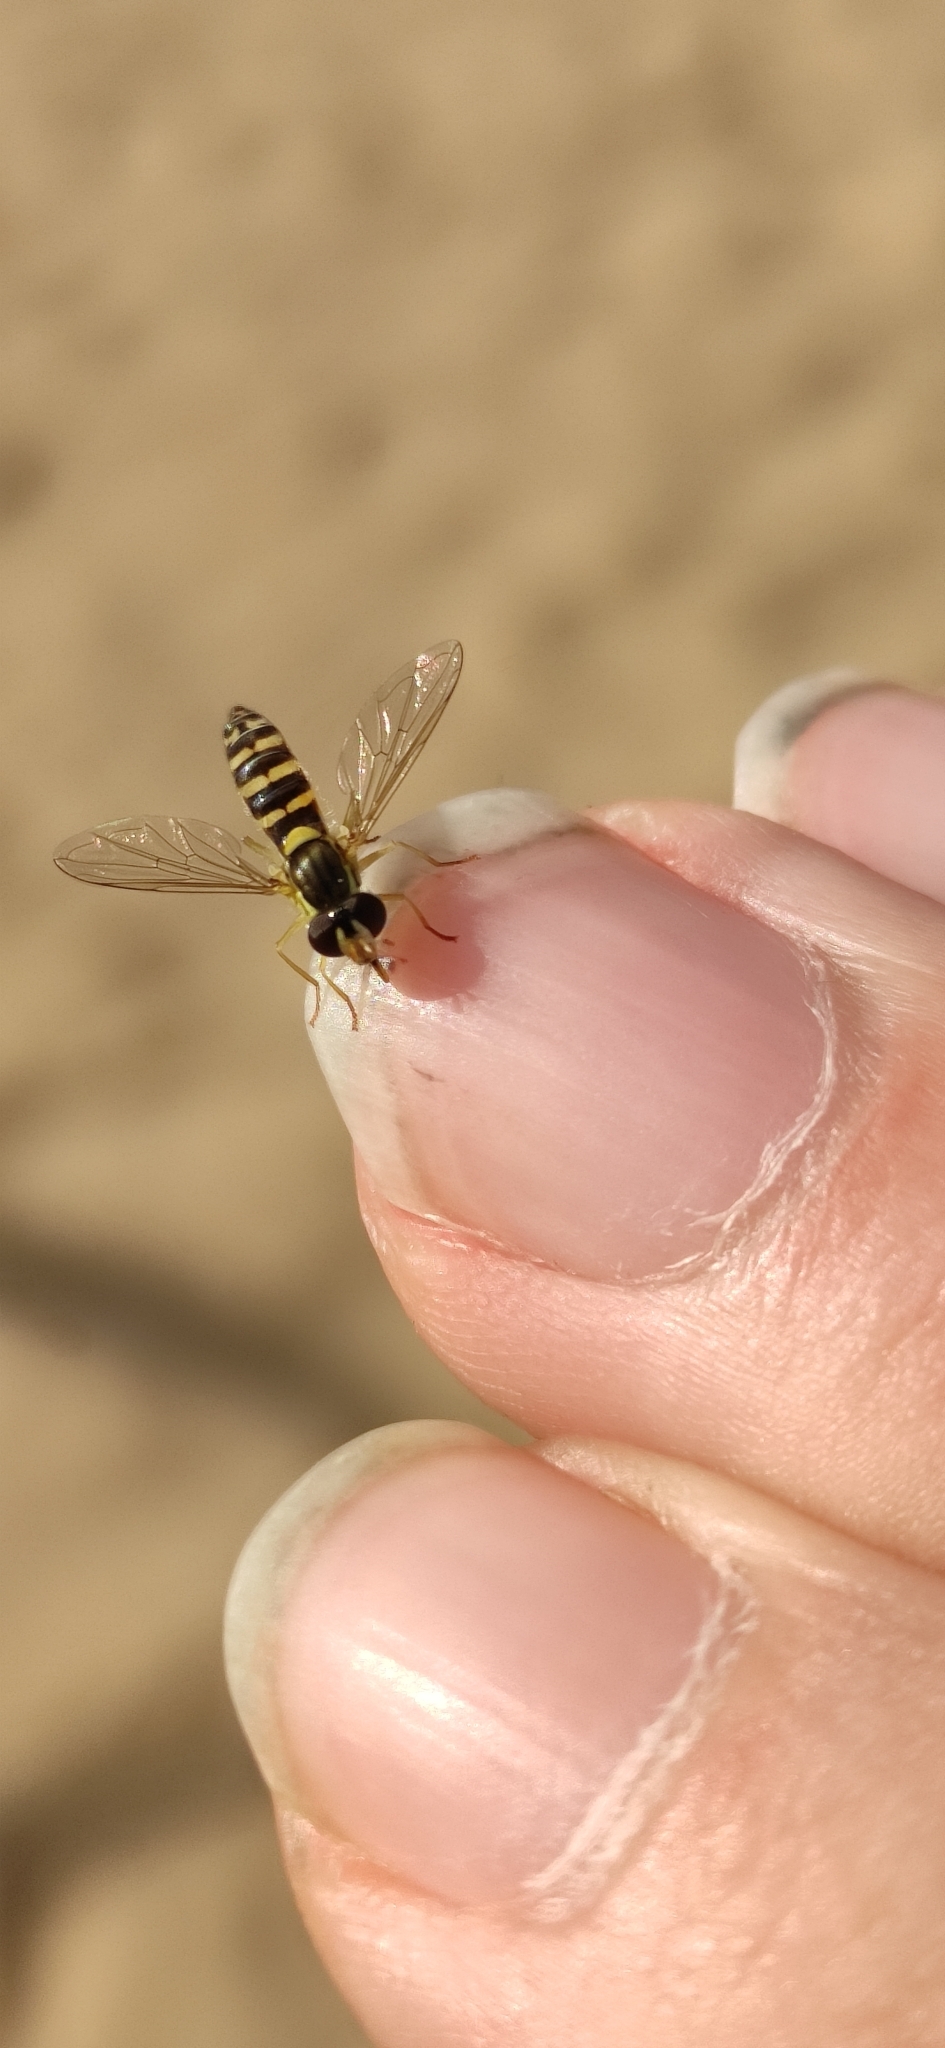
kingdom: Animalia
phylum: Arthropoda
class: Insecta
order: Diptera
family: Syrphidae
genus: Sphaerophoria
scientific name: Sphaerophoria scripta
